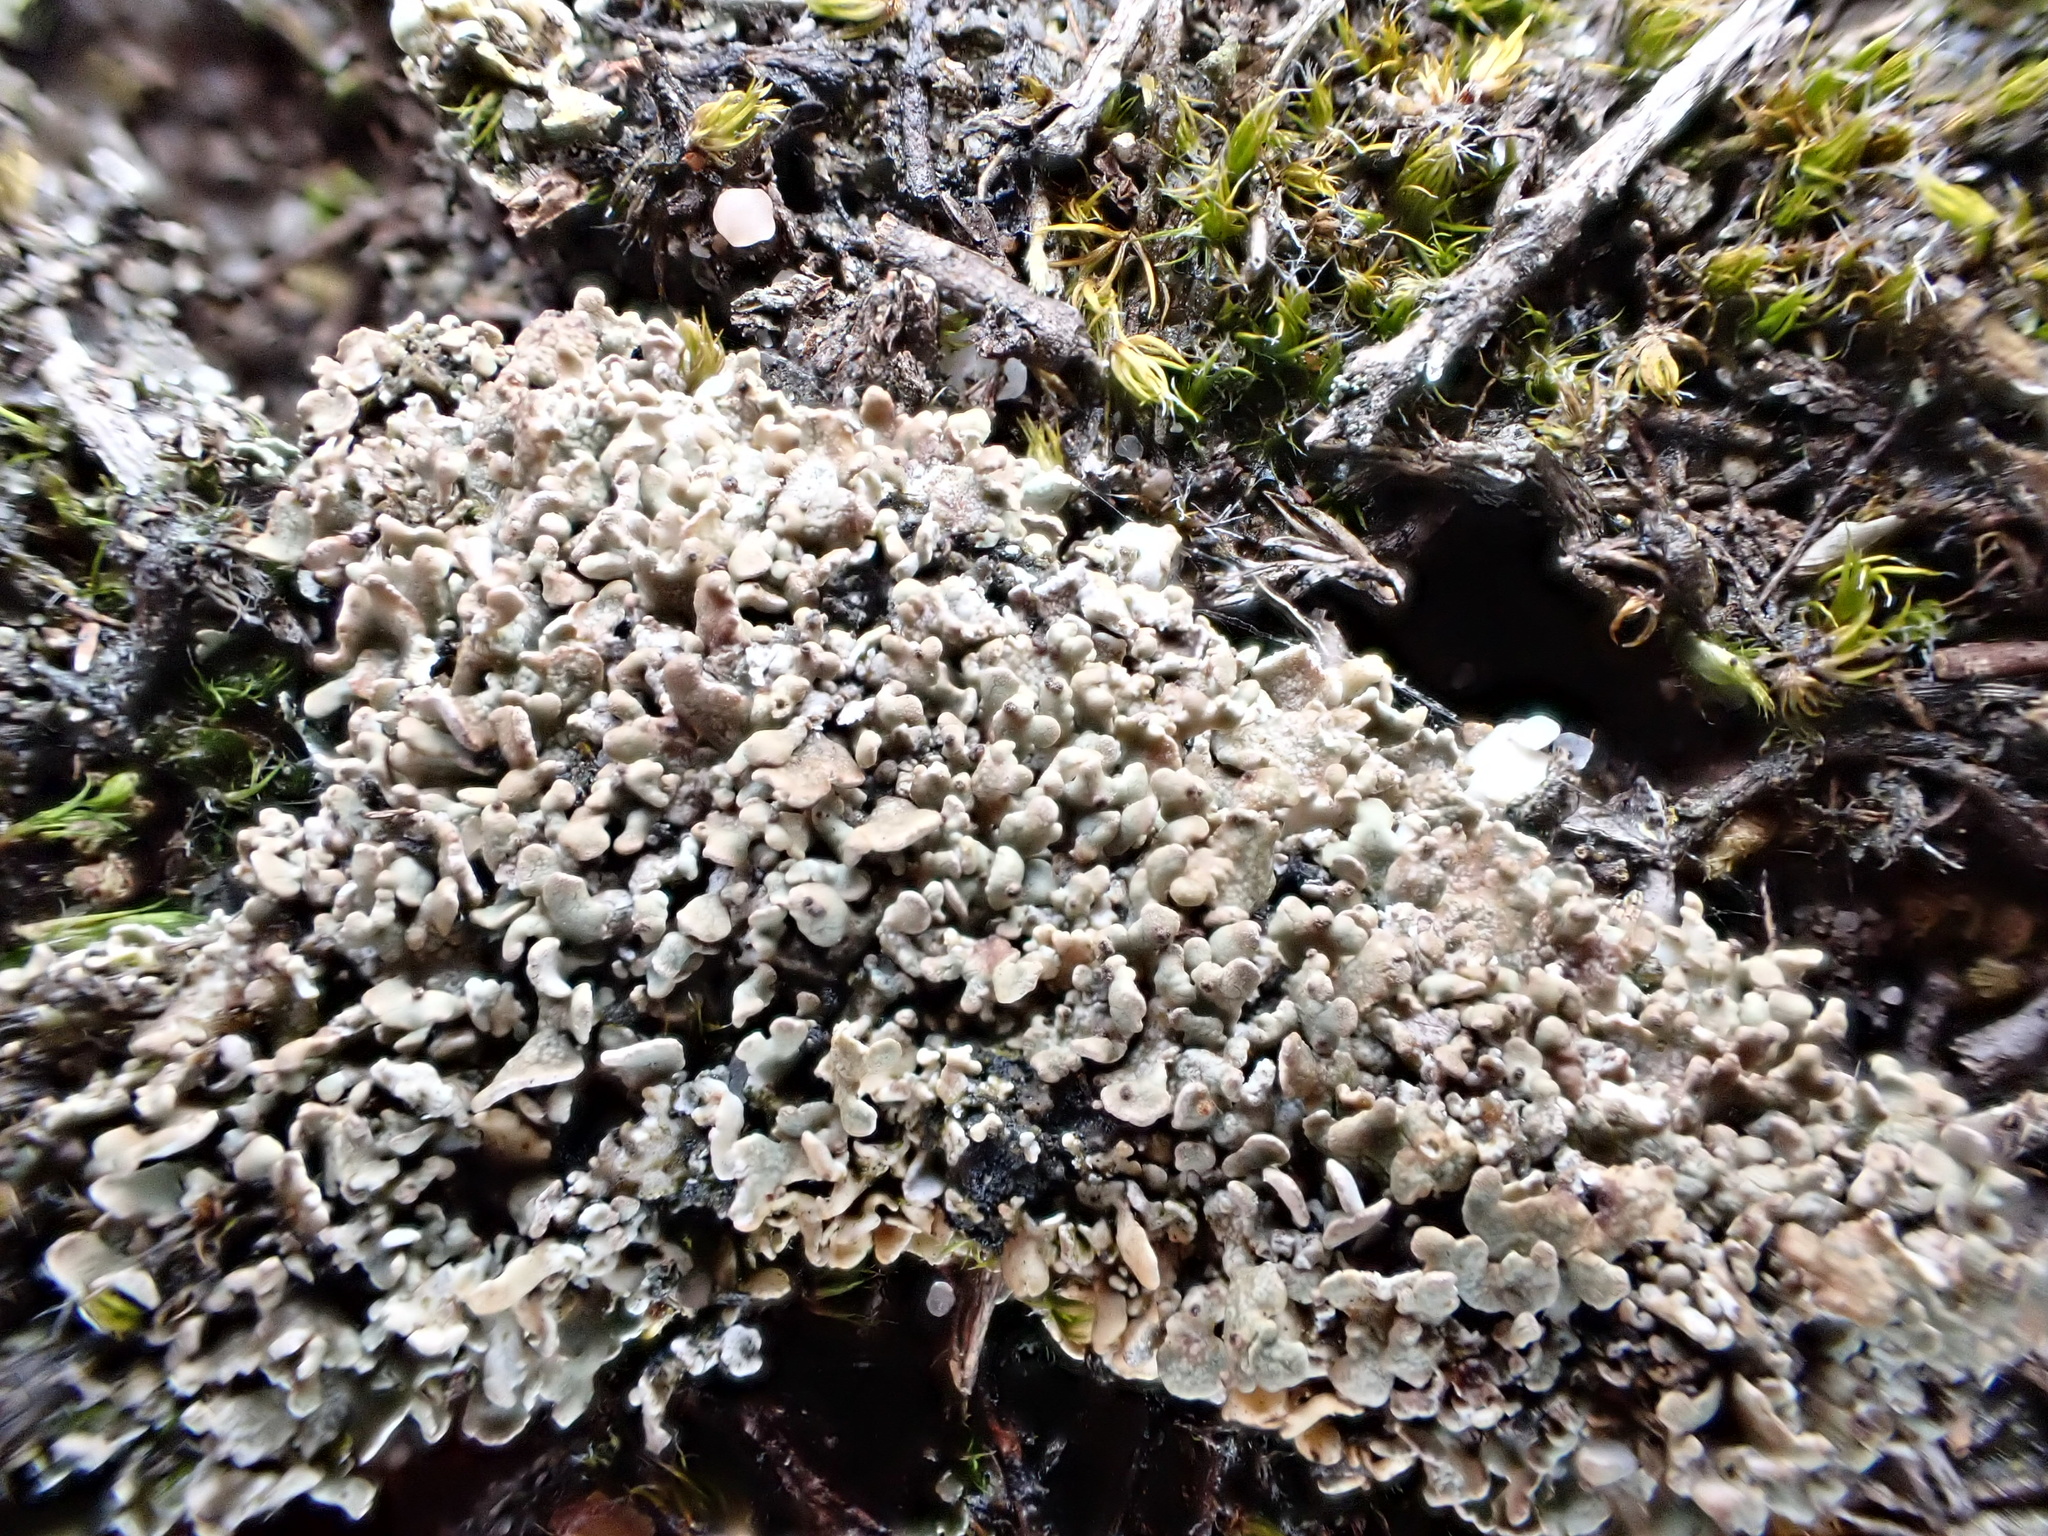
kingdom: Fungi
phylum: Ascomycota
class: Lecanoromycetes
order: Lecanorales
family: Cladoniaceae
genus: Cladonia
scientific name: Cladonia strepsilis
